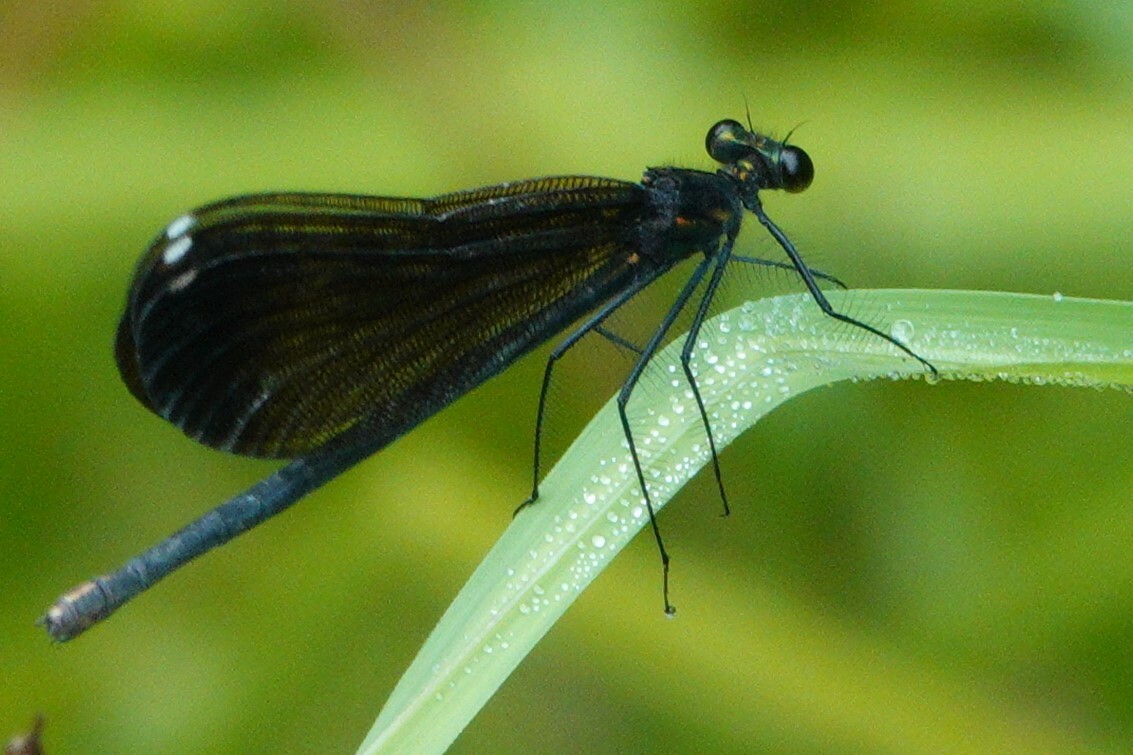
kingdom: Animalia
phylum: Arthropoda
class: Insecta
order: Odonata
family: Calopterygidae
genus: Calopteryx
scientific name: Calopteryx maculata
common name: Ebony jewelwing
